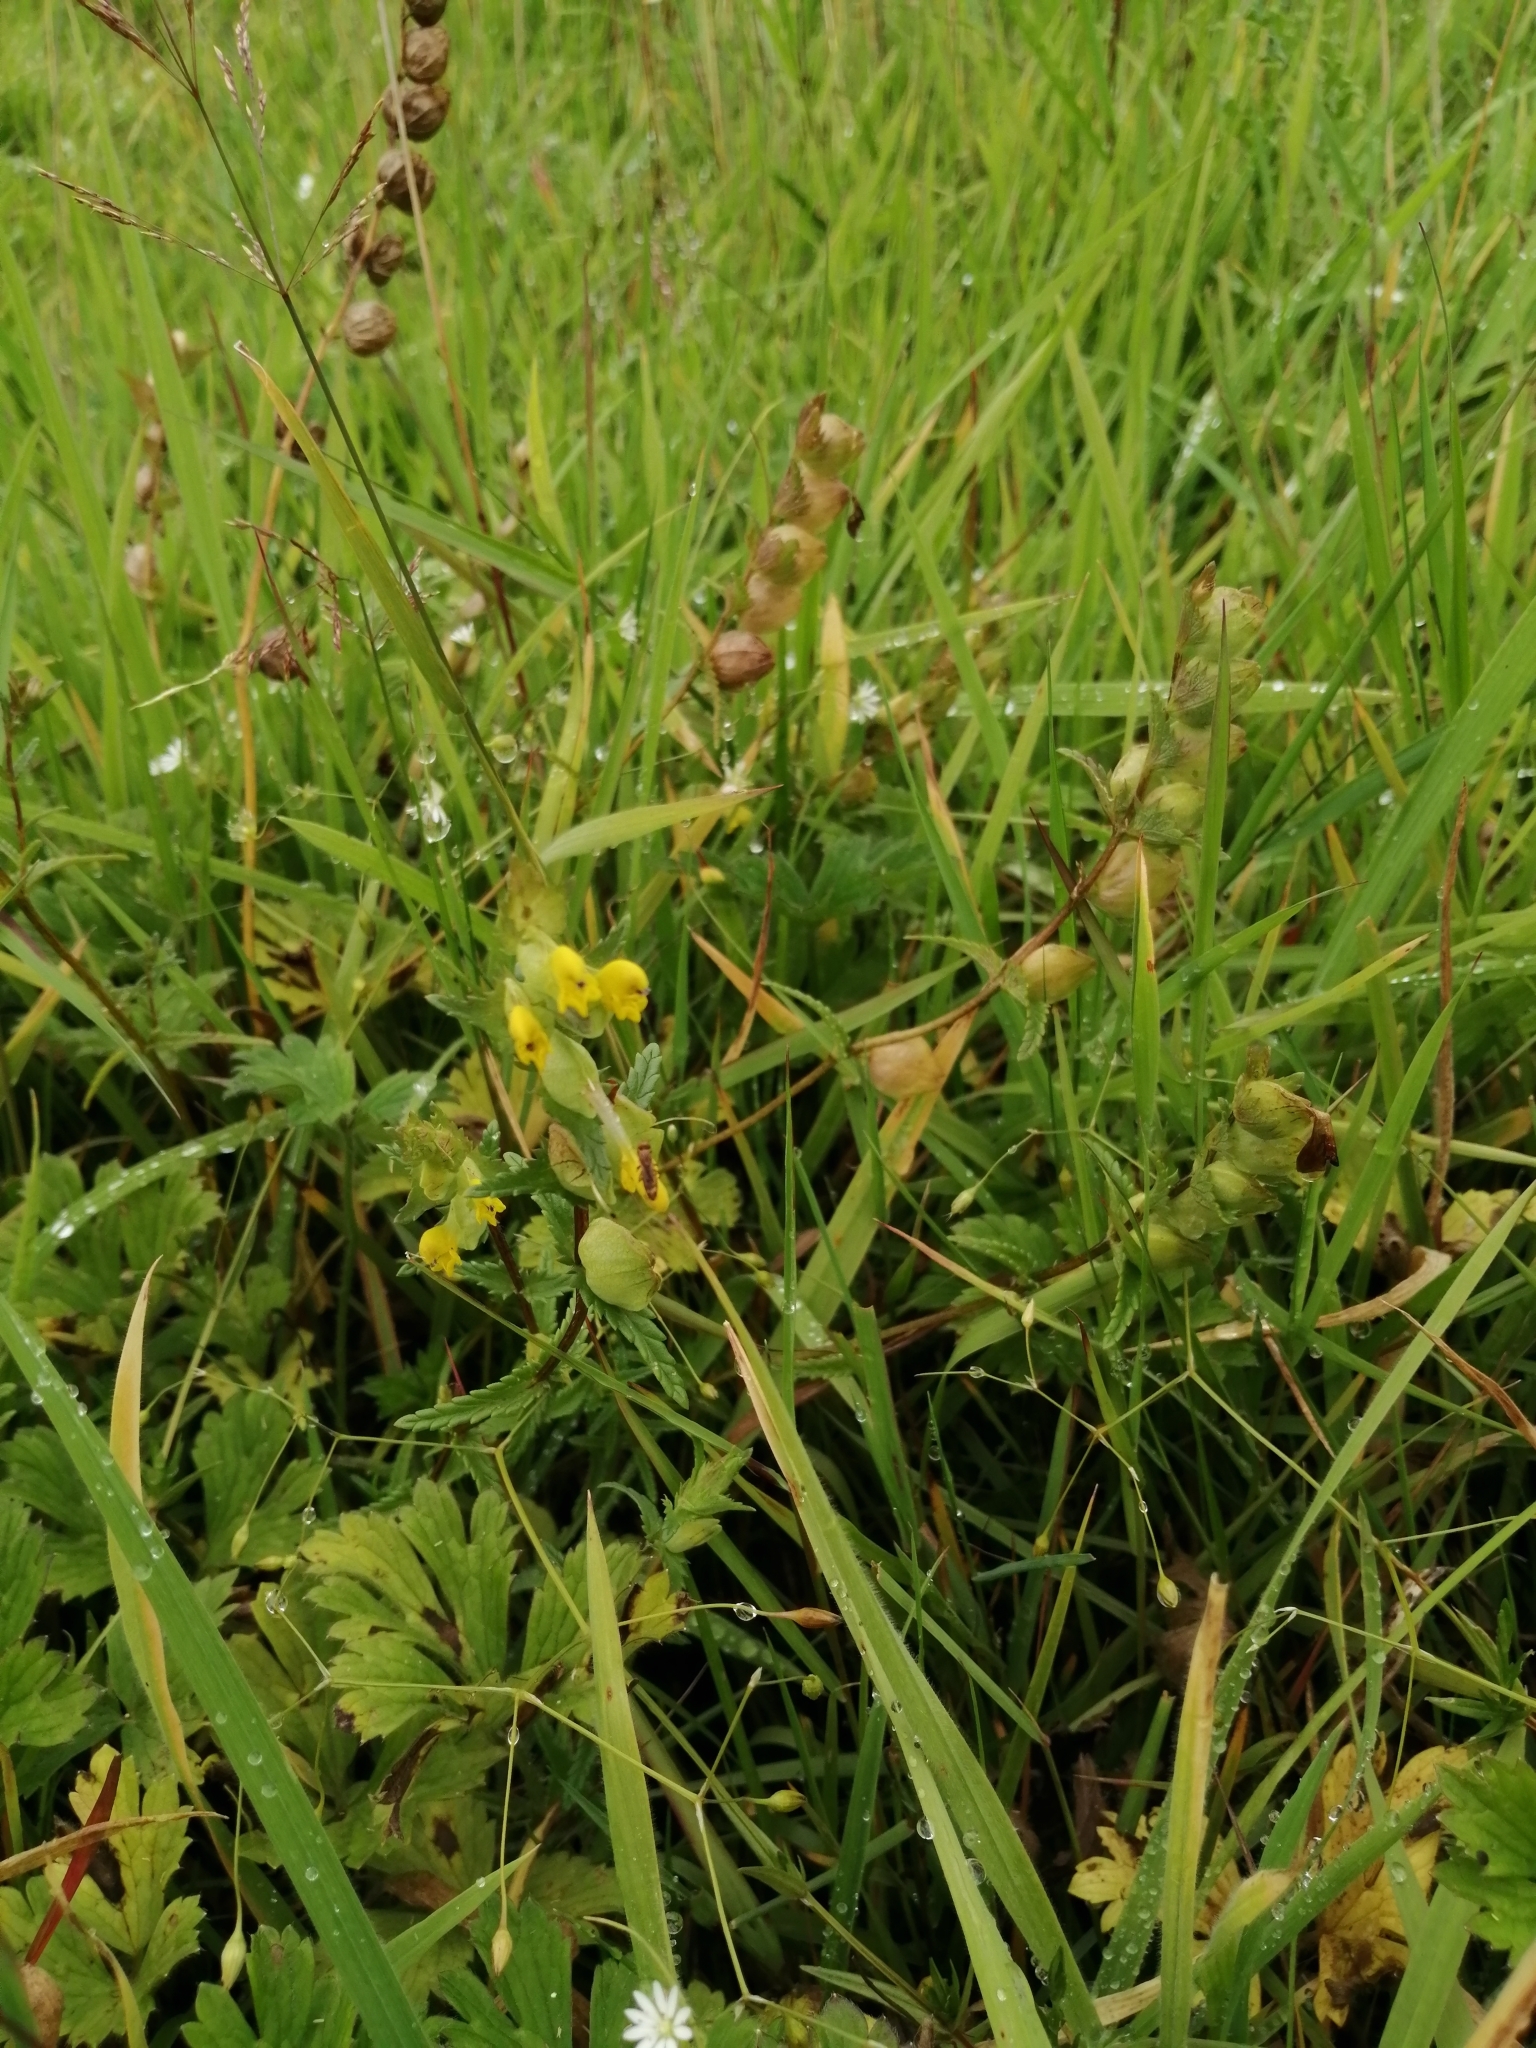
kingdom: Plantae
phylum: Tracheophyta
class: Magnoliopsida
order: Lamiales
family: Orobanchaceae
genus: Rhinanthus
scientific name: Rhinanthus minor
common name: Yellow-rattle
